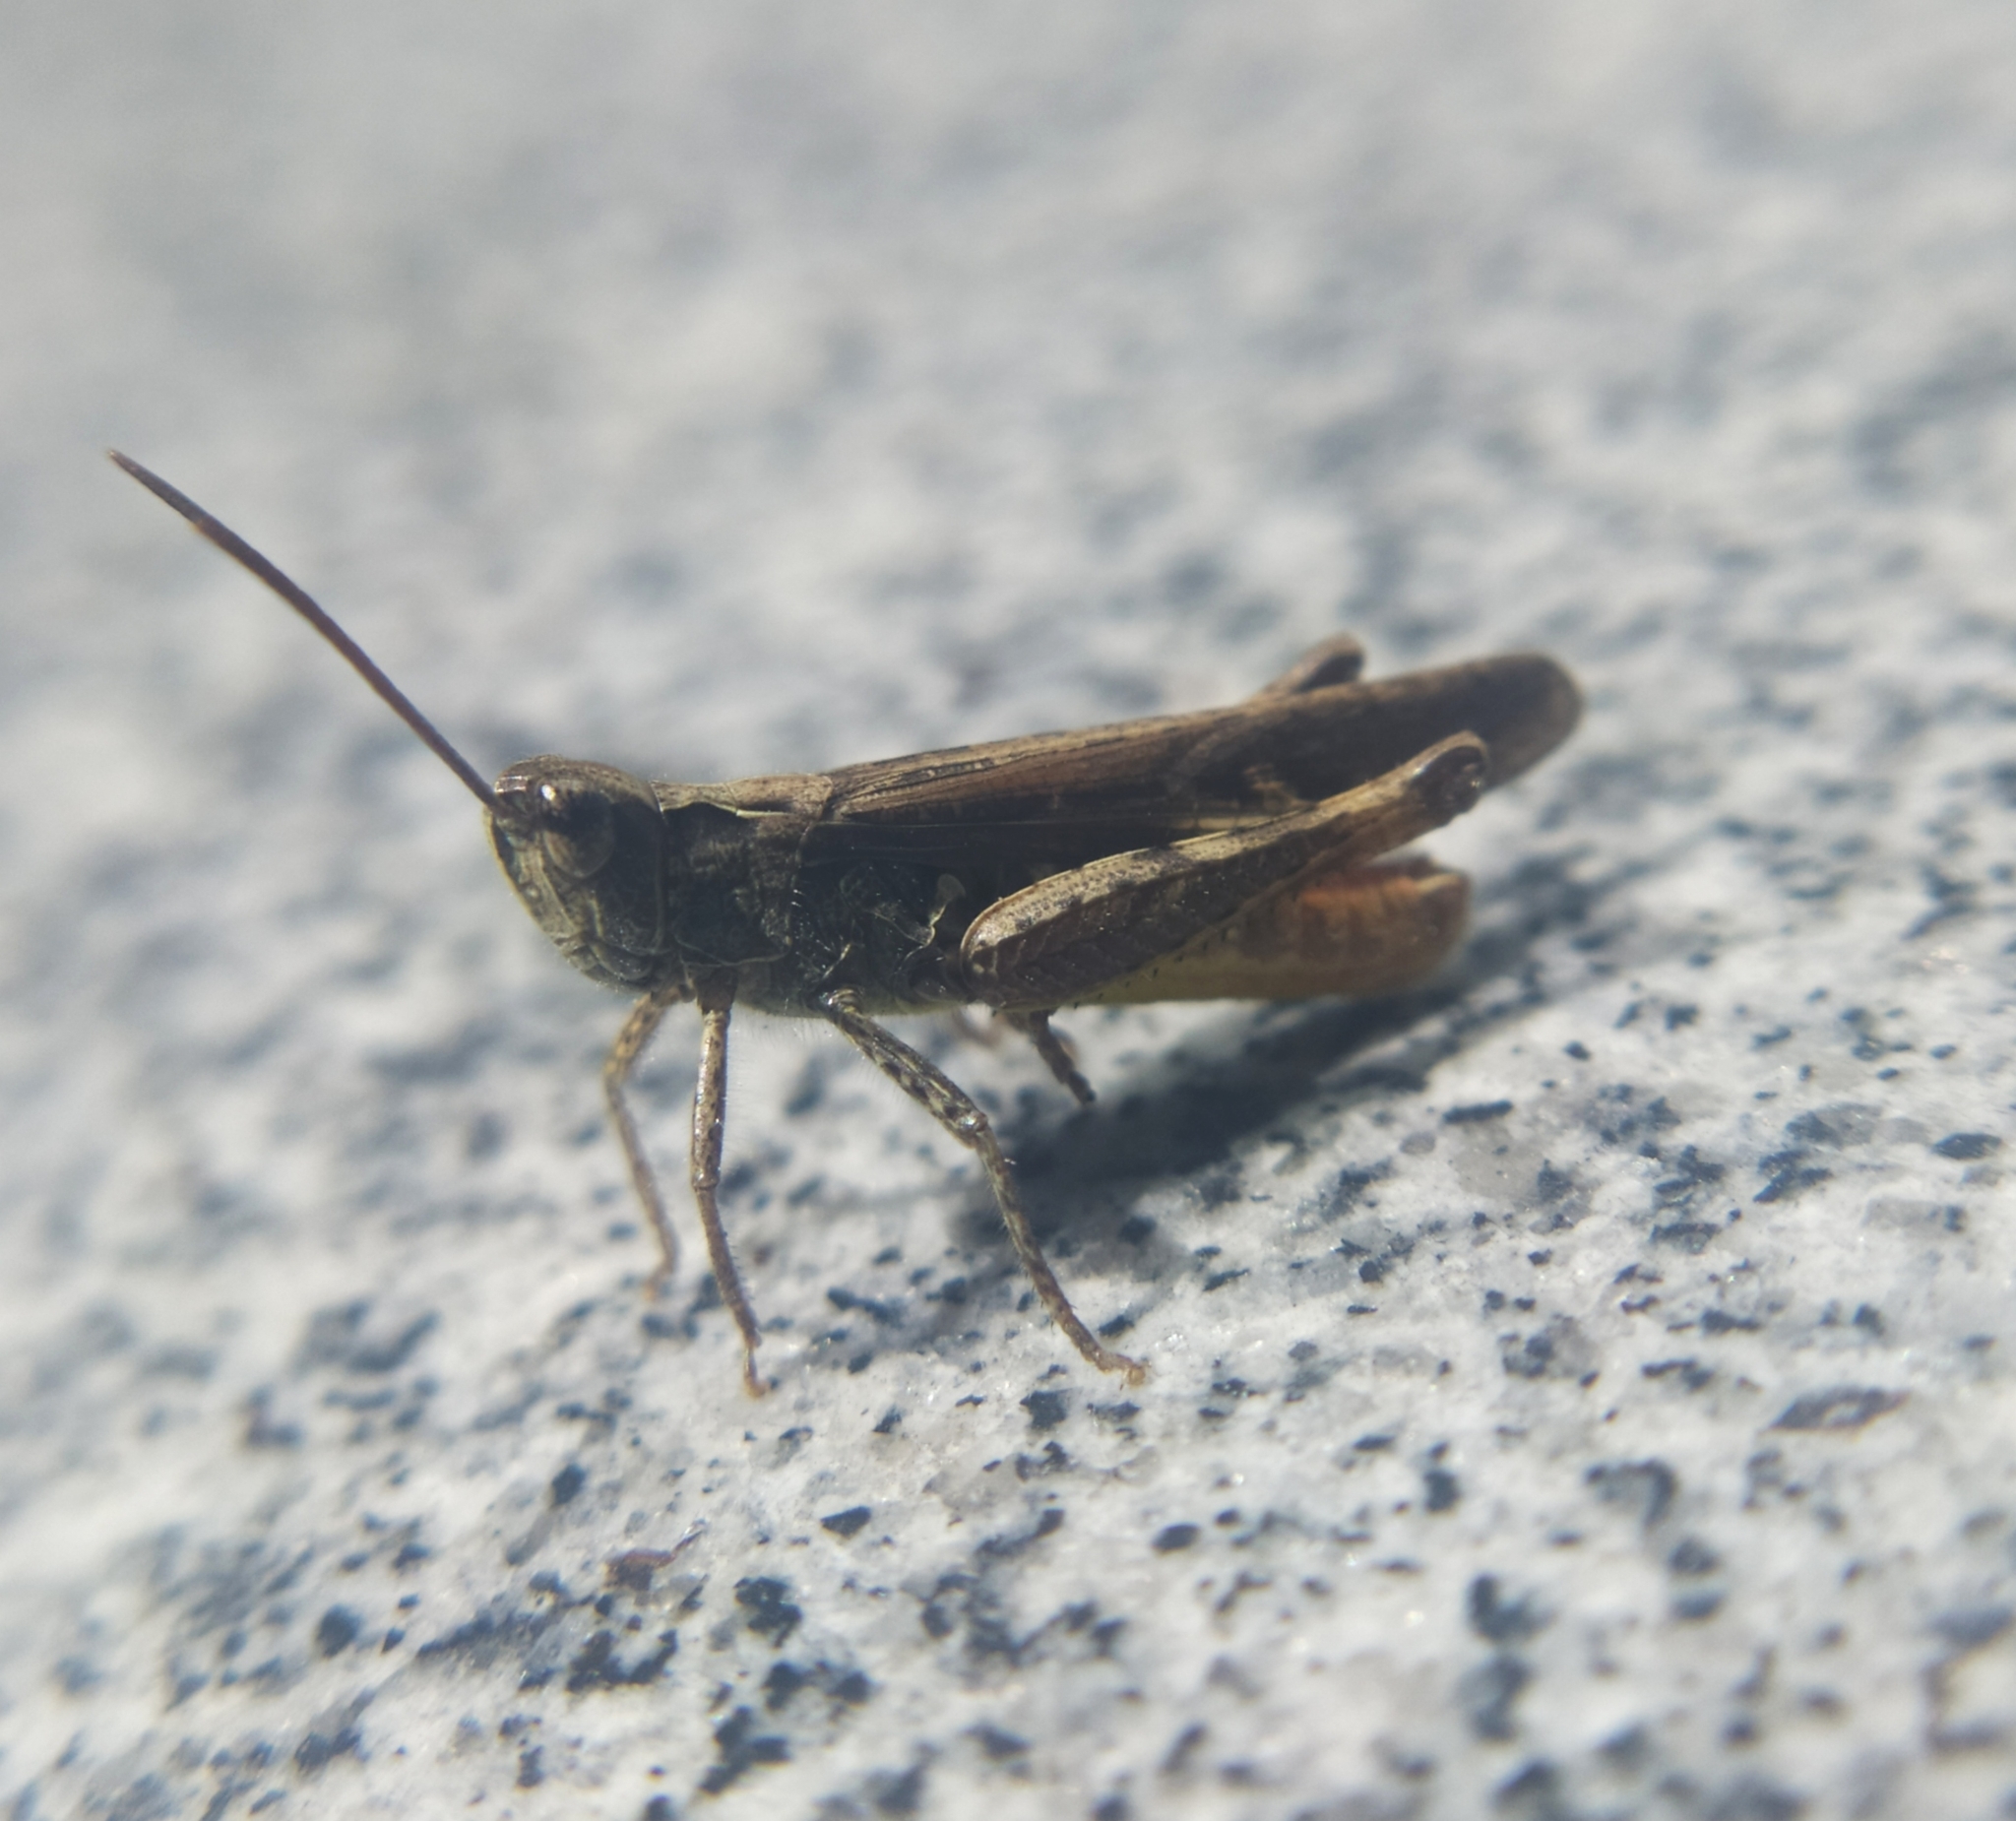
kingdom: Animalia
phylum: Arthropoda
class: Insecta
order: Orthoptera
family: Acrididae
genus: Chorthippus
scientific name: Chorthippus brunneus
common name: Field grasshopper
